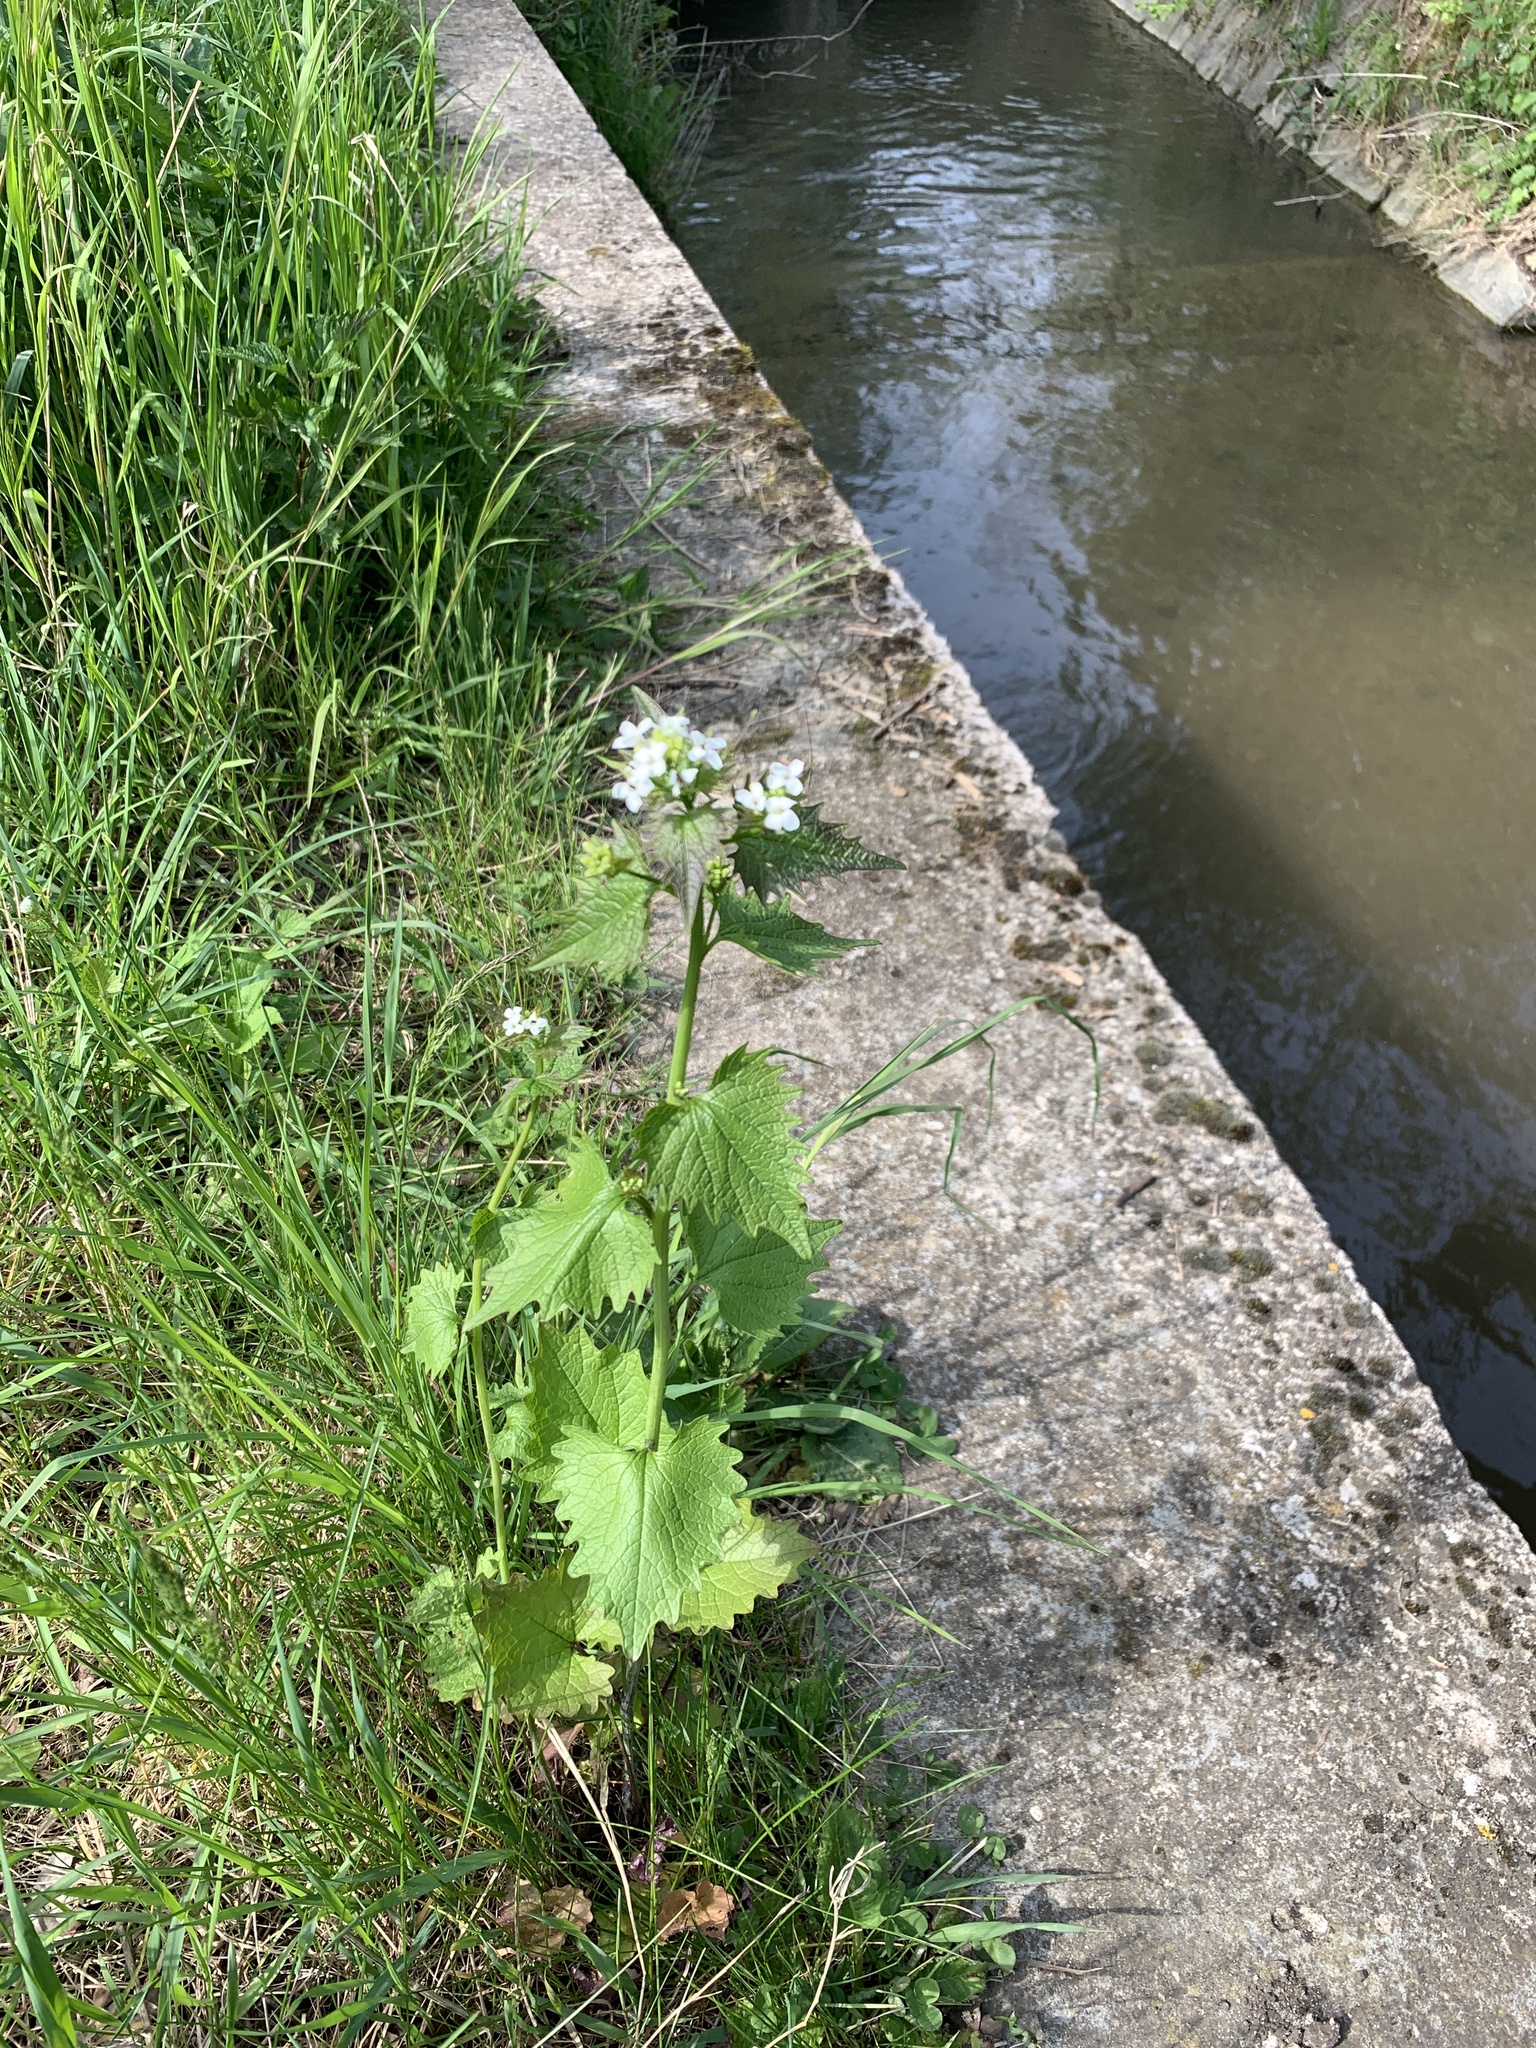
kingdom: Plantae
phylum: Tracheophyta
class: Magnoliopsida
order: Brassicales
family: Brassicaceae
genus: Alliaria
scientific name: Alliaria petiolata
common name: Garlic mustard
